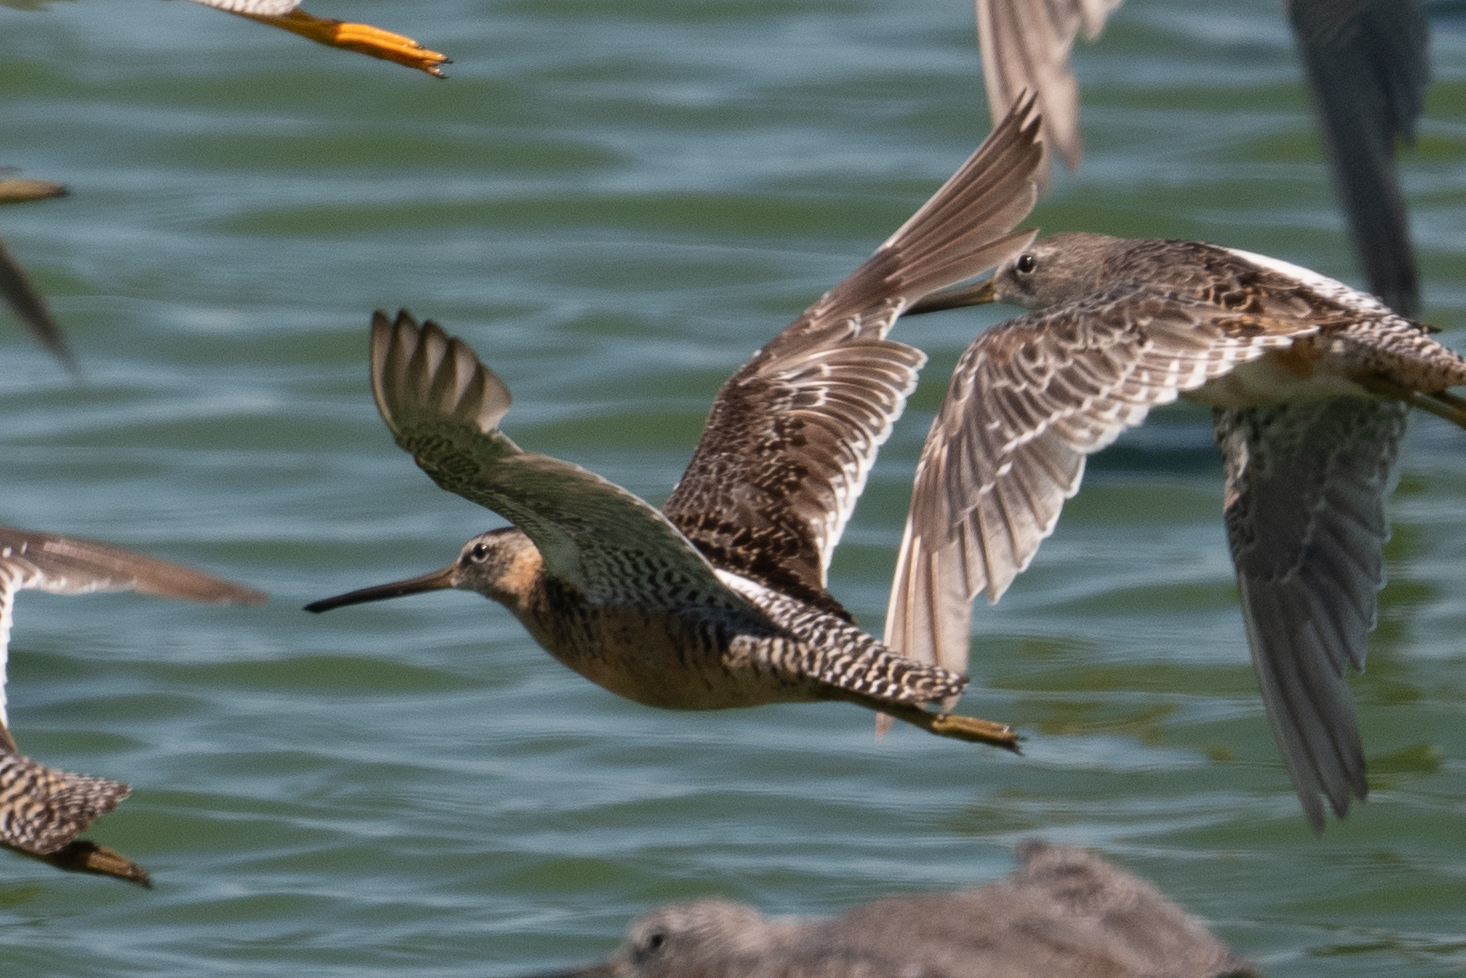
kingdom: Animalia
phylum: Chordata
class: Aves
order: Charadriiformes
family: Scolopacidae
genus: Limnodromus
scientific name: Limnodromus scolopaceus
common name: Long-billed dowitcher
